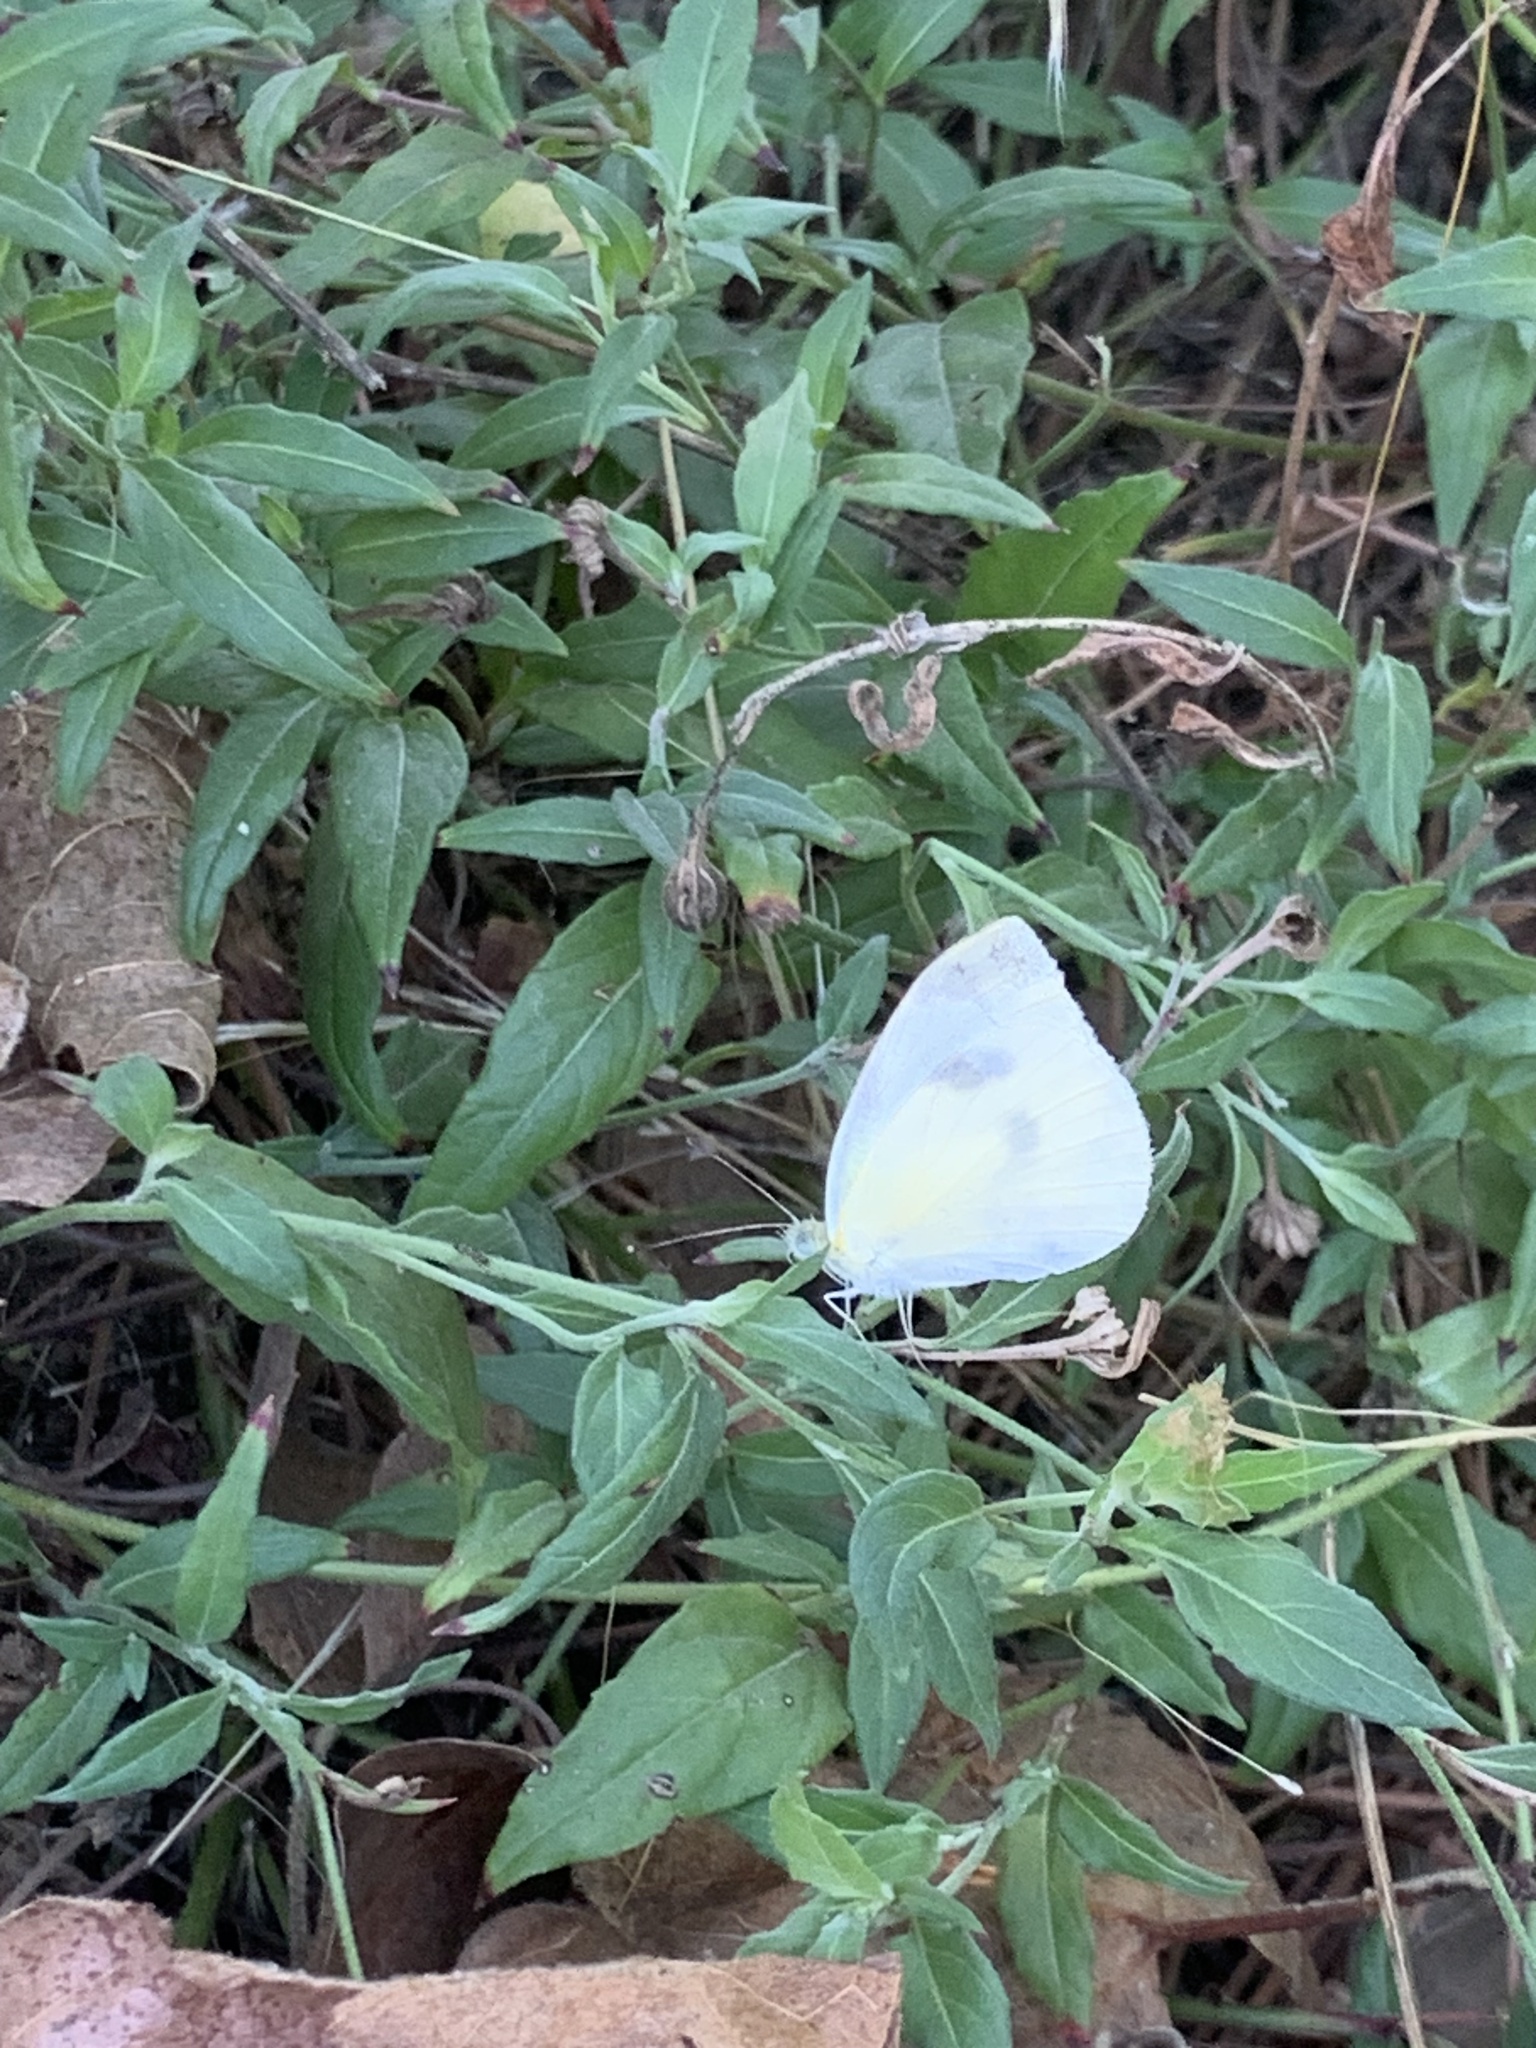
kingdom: Animalia
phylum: Arthropoda
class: Insecta
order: Lepidoptera
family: Pieridae
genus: Pieris
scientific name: Pieris rapae
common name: Small white
